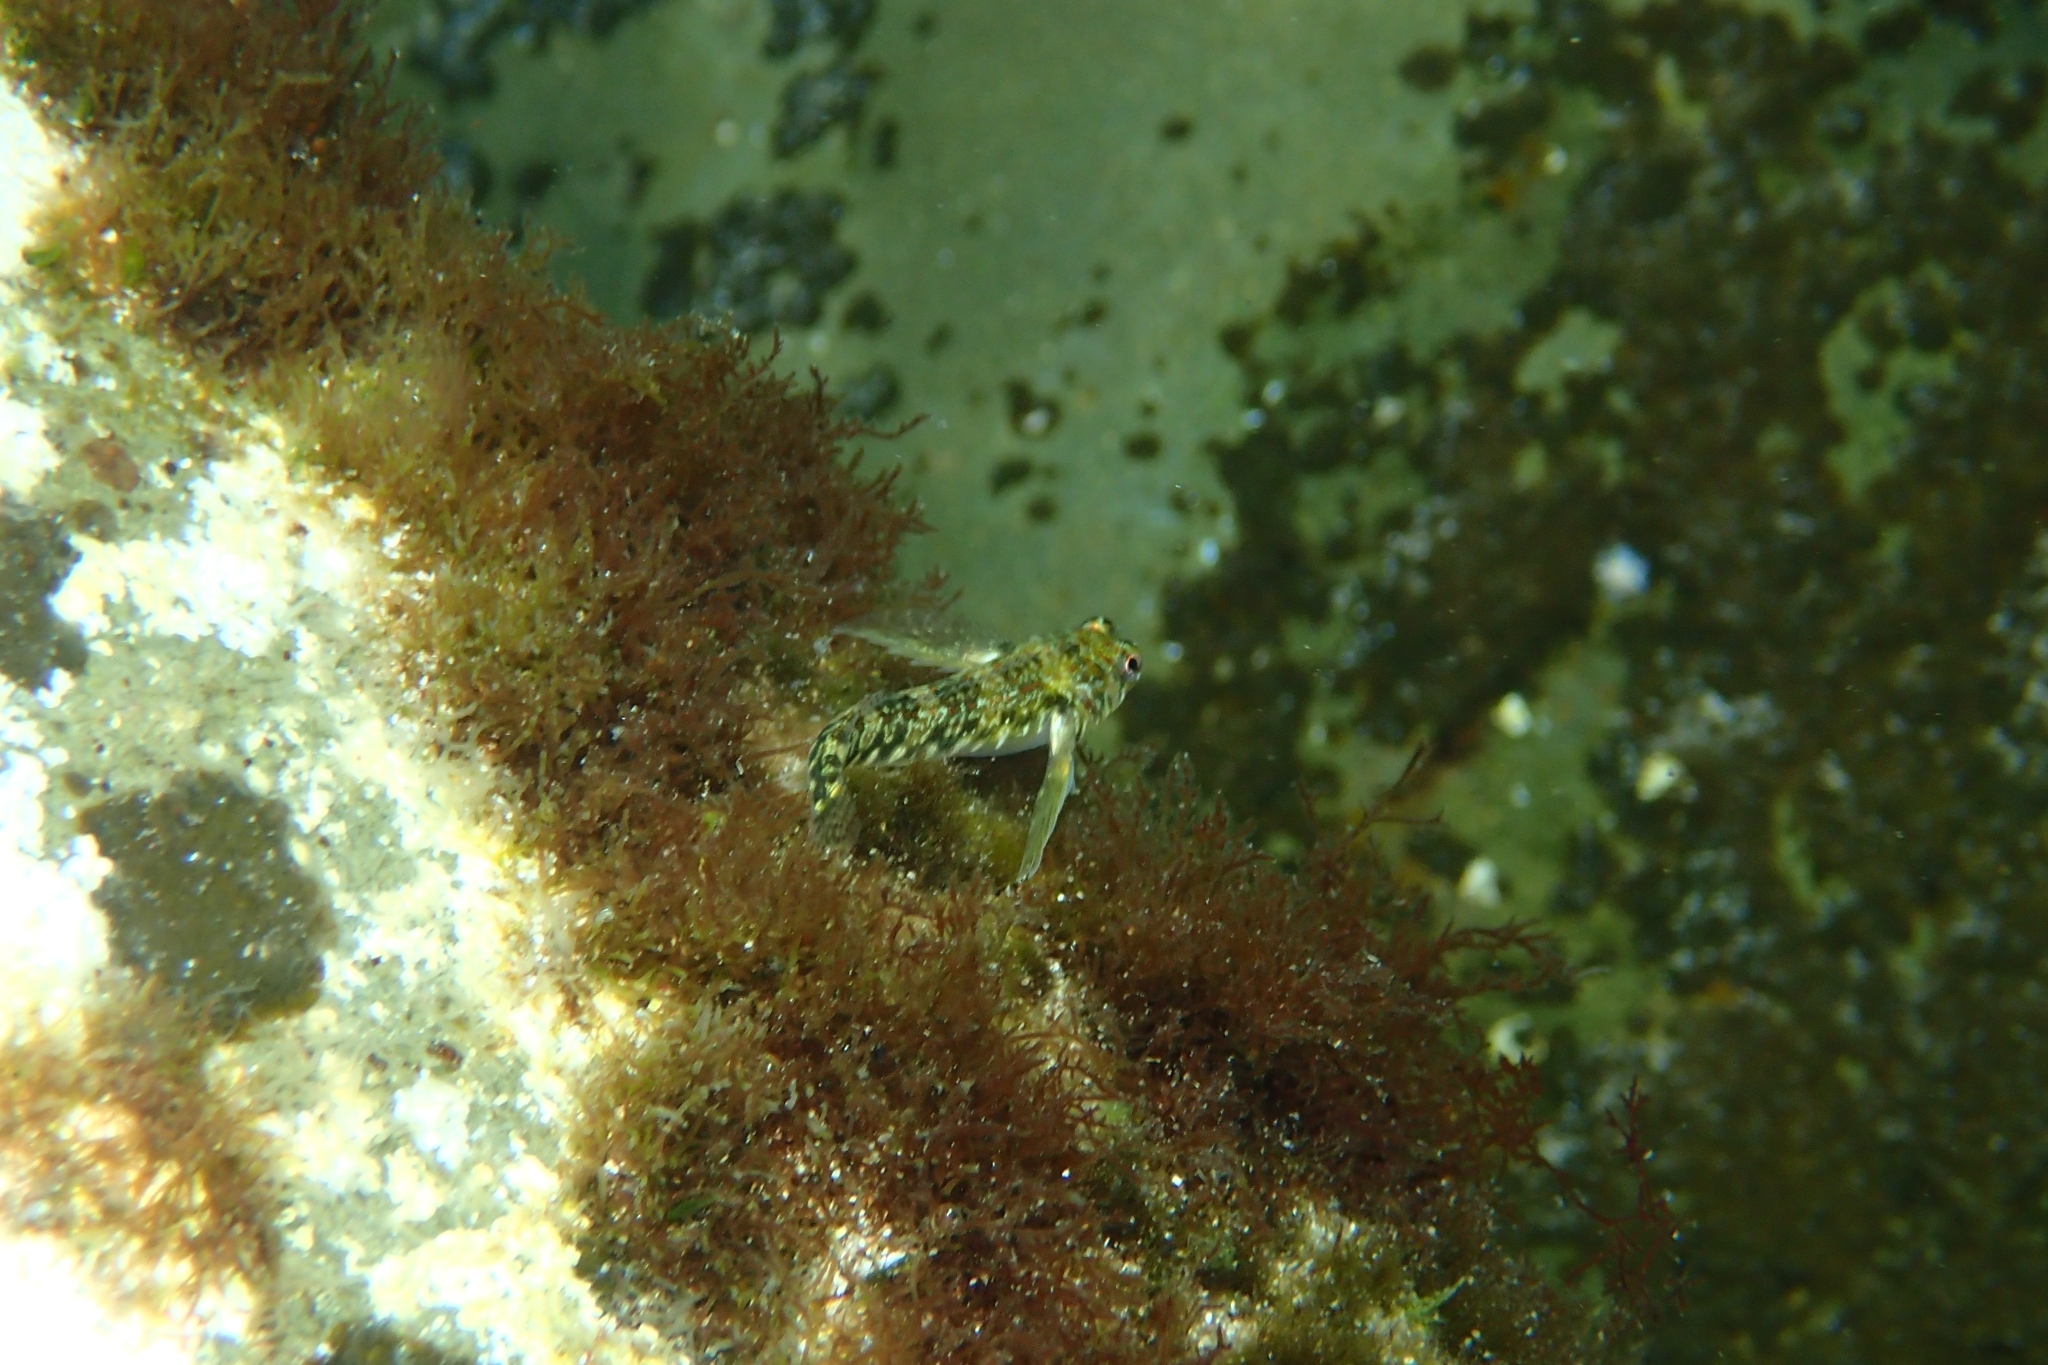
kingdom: Animalia
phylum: Chordata
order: Perciformes
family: Tripterygiidae
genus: Bellapiscis
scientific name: Bellapiscis lesleyae
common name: Mottled twister
